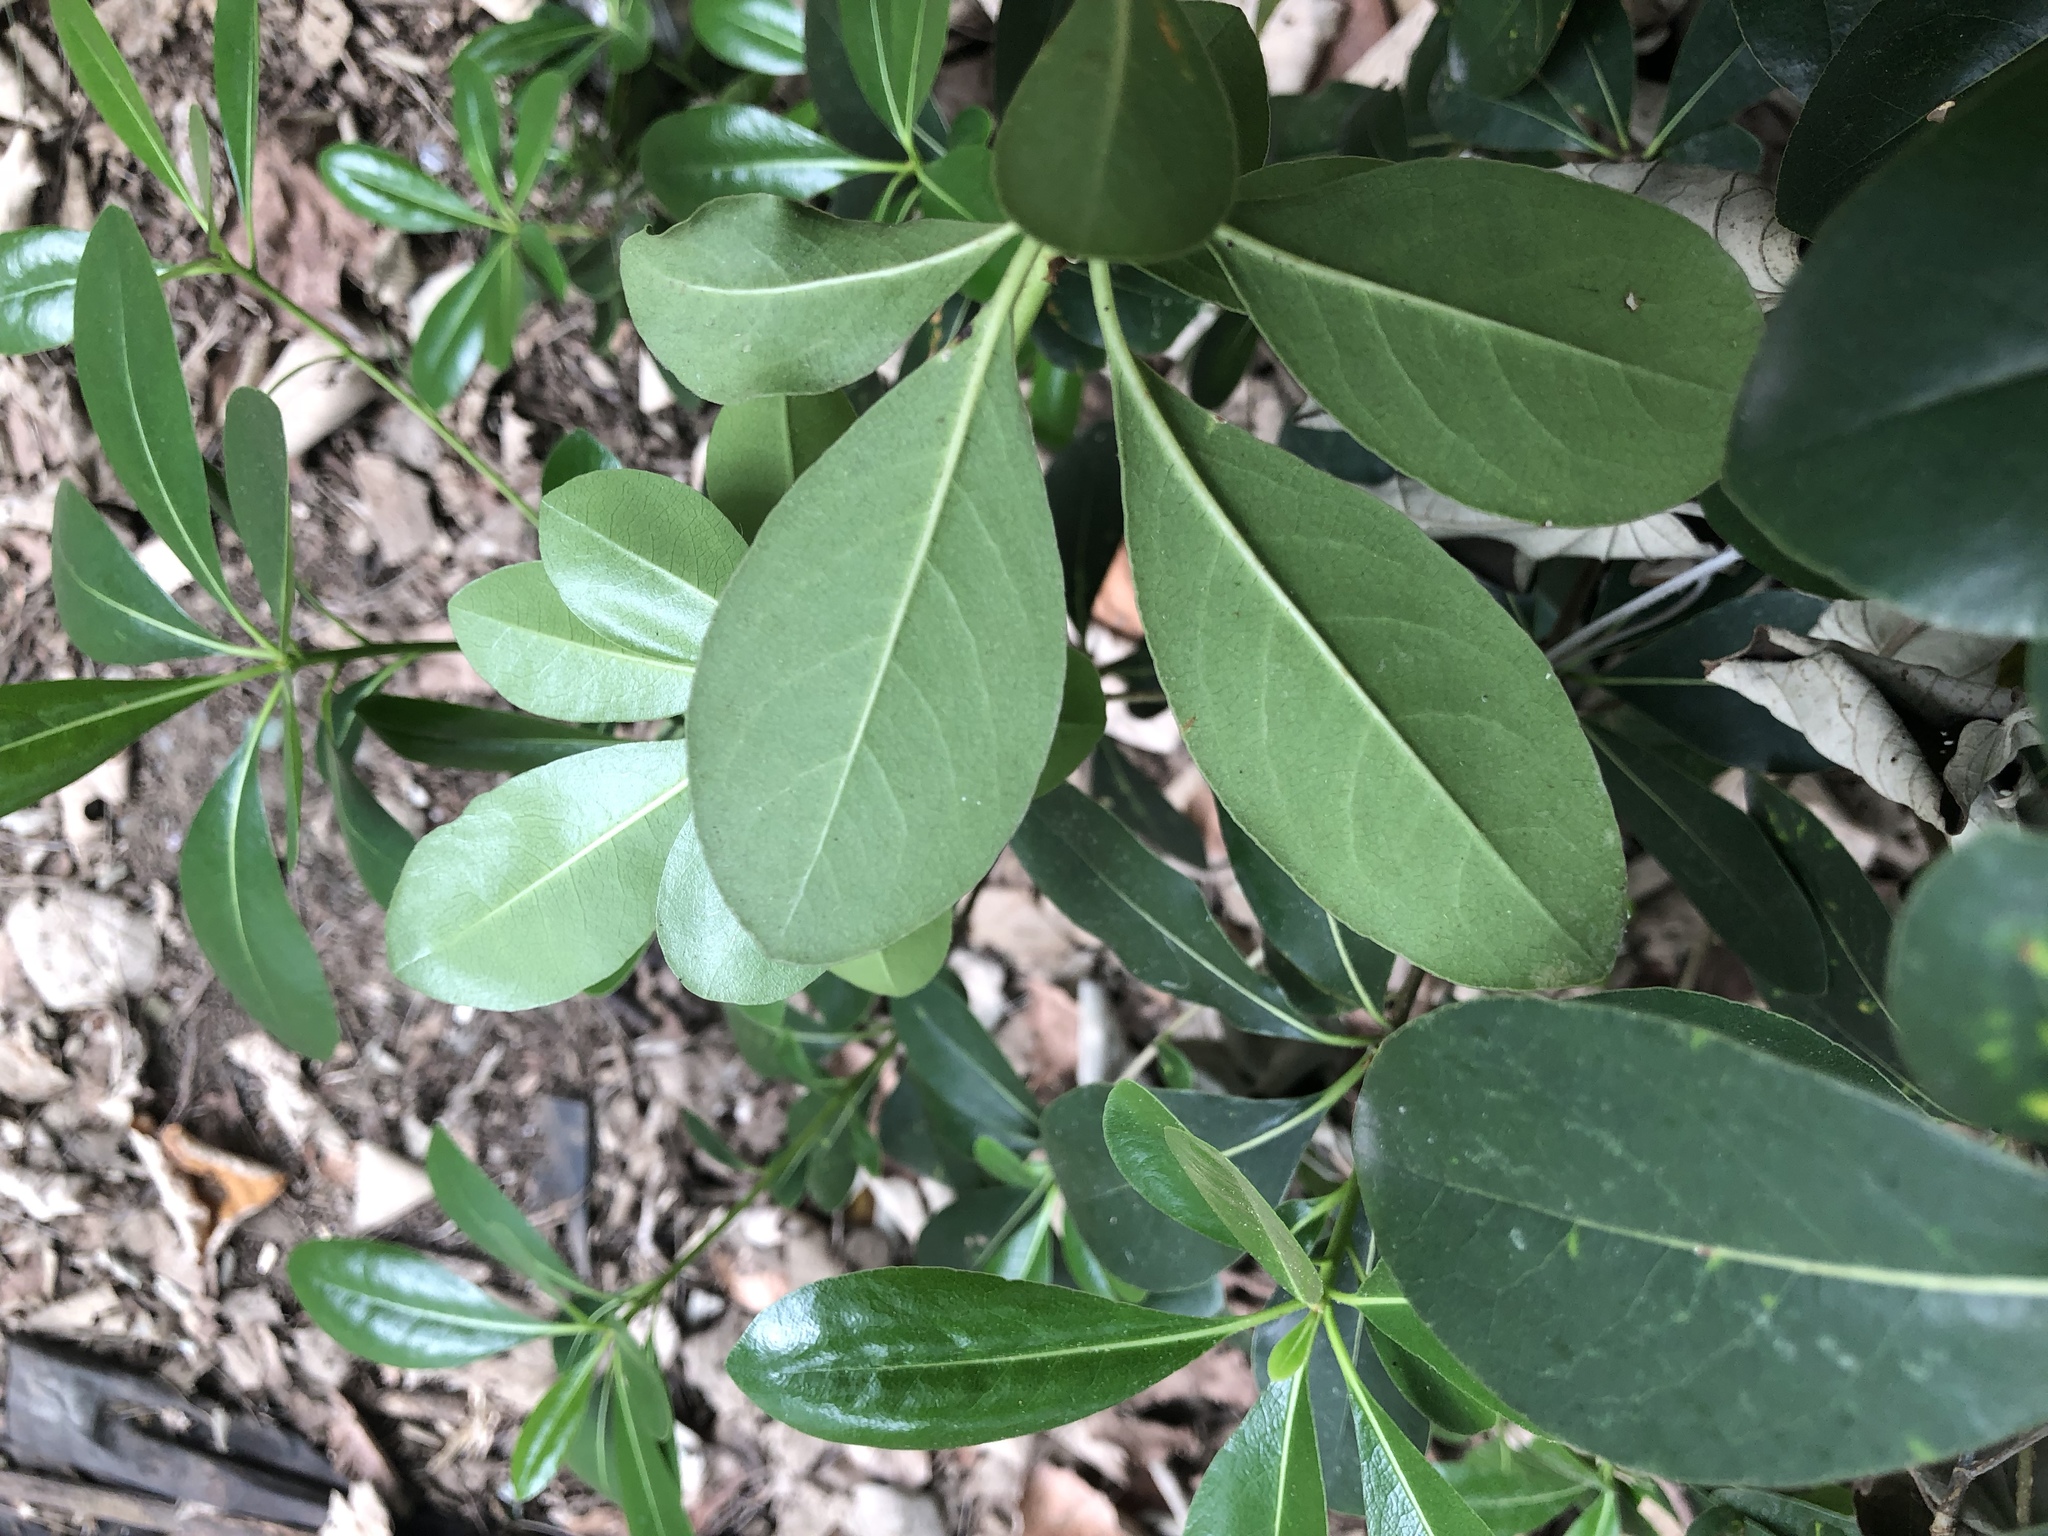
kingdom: Plantae
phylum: Tracheophyta
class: Magnoliopsida
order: Apiales
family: Pittosporaceae
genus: Pittosporum
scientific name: Pittosporum tobira
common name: Japanese cheesewood
